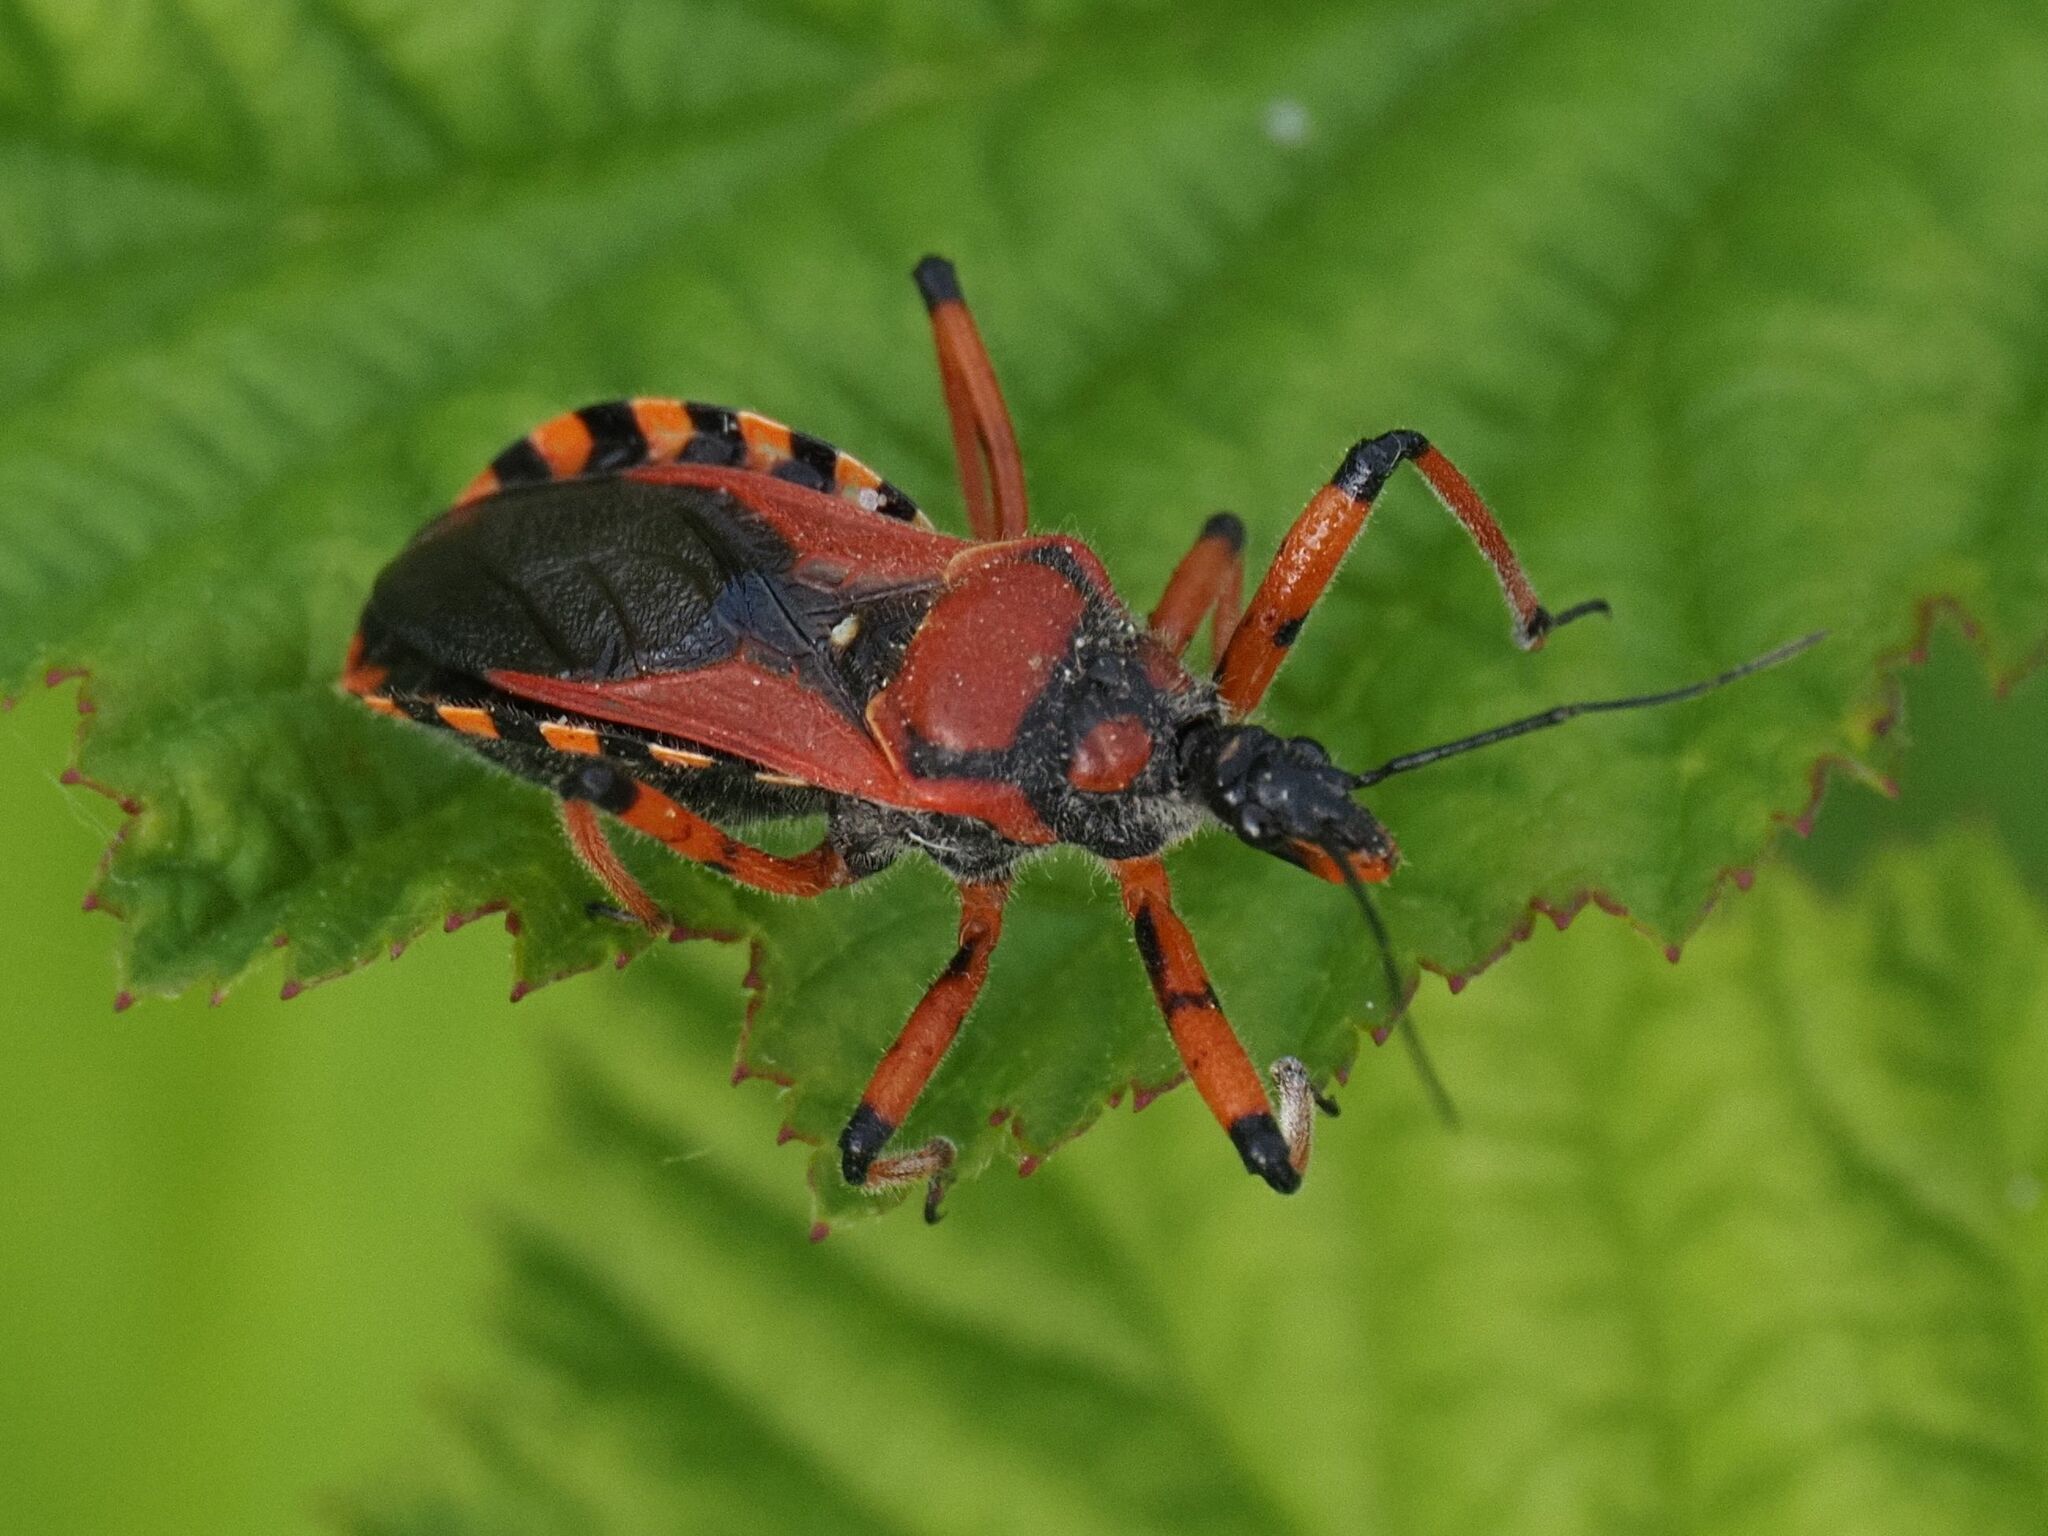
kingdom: Animalia
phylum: Arthropoda
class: Insecta
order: Hemiptera
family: Reduviidae
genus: Rhynocoris
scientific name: Rhynocoris iracundus
